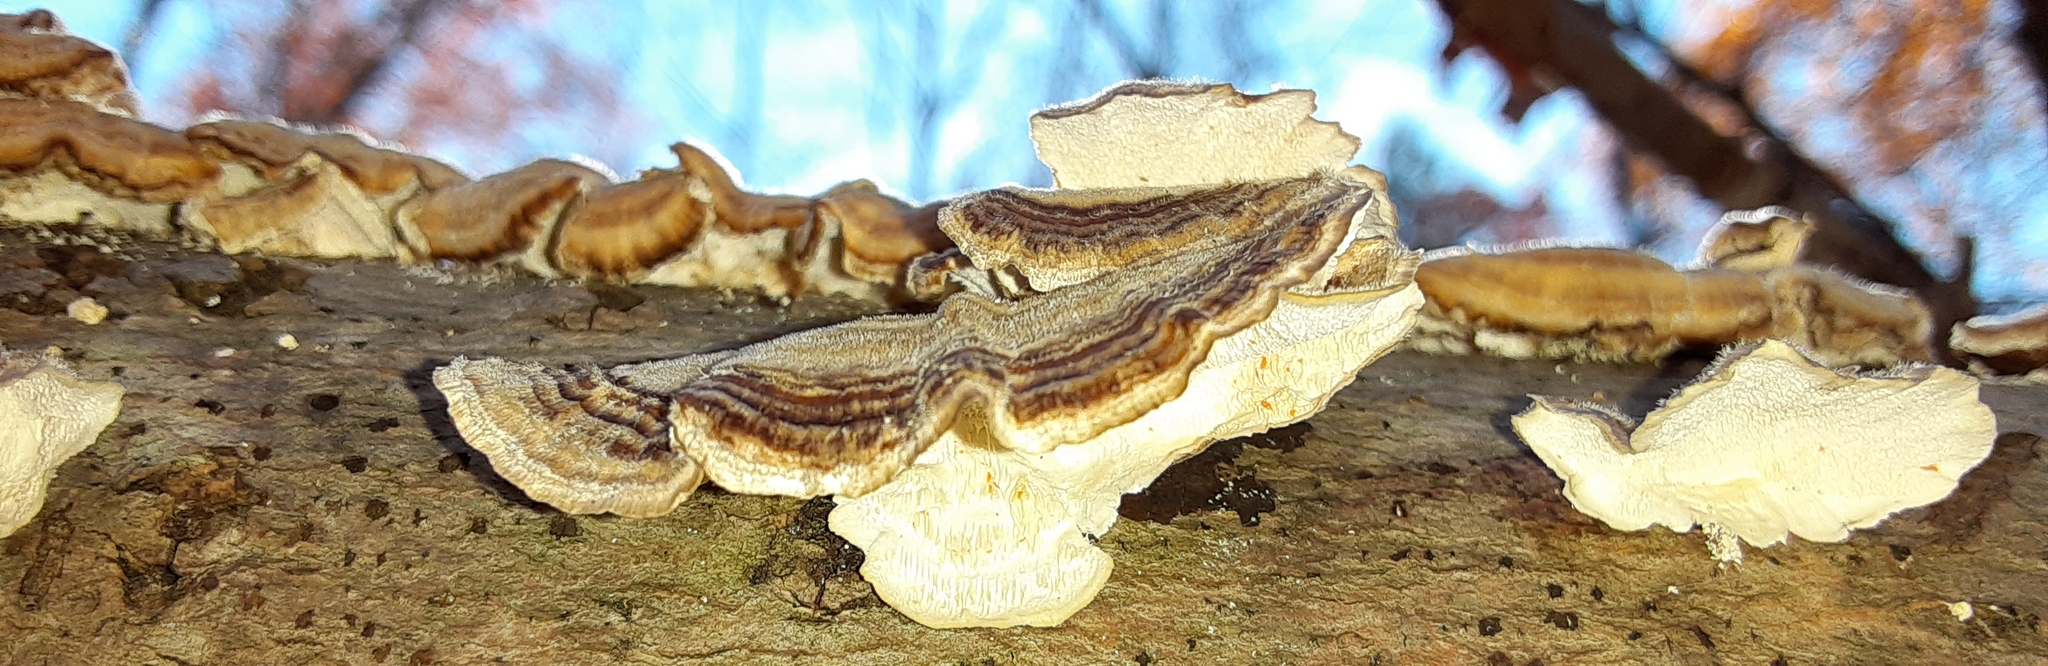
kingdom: Fungi
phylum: Basidiomycota
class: Agaricomycetes
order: Polyporales
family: Polyporaceae
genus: Trametes
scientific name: Trametes versicolor
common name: Turkeytail
